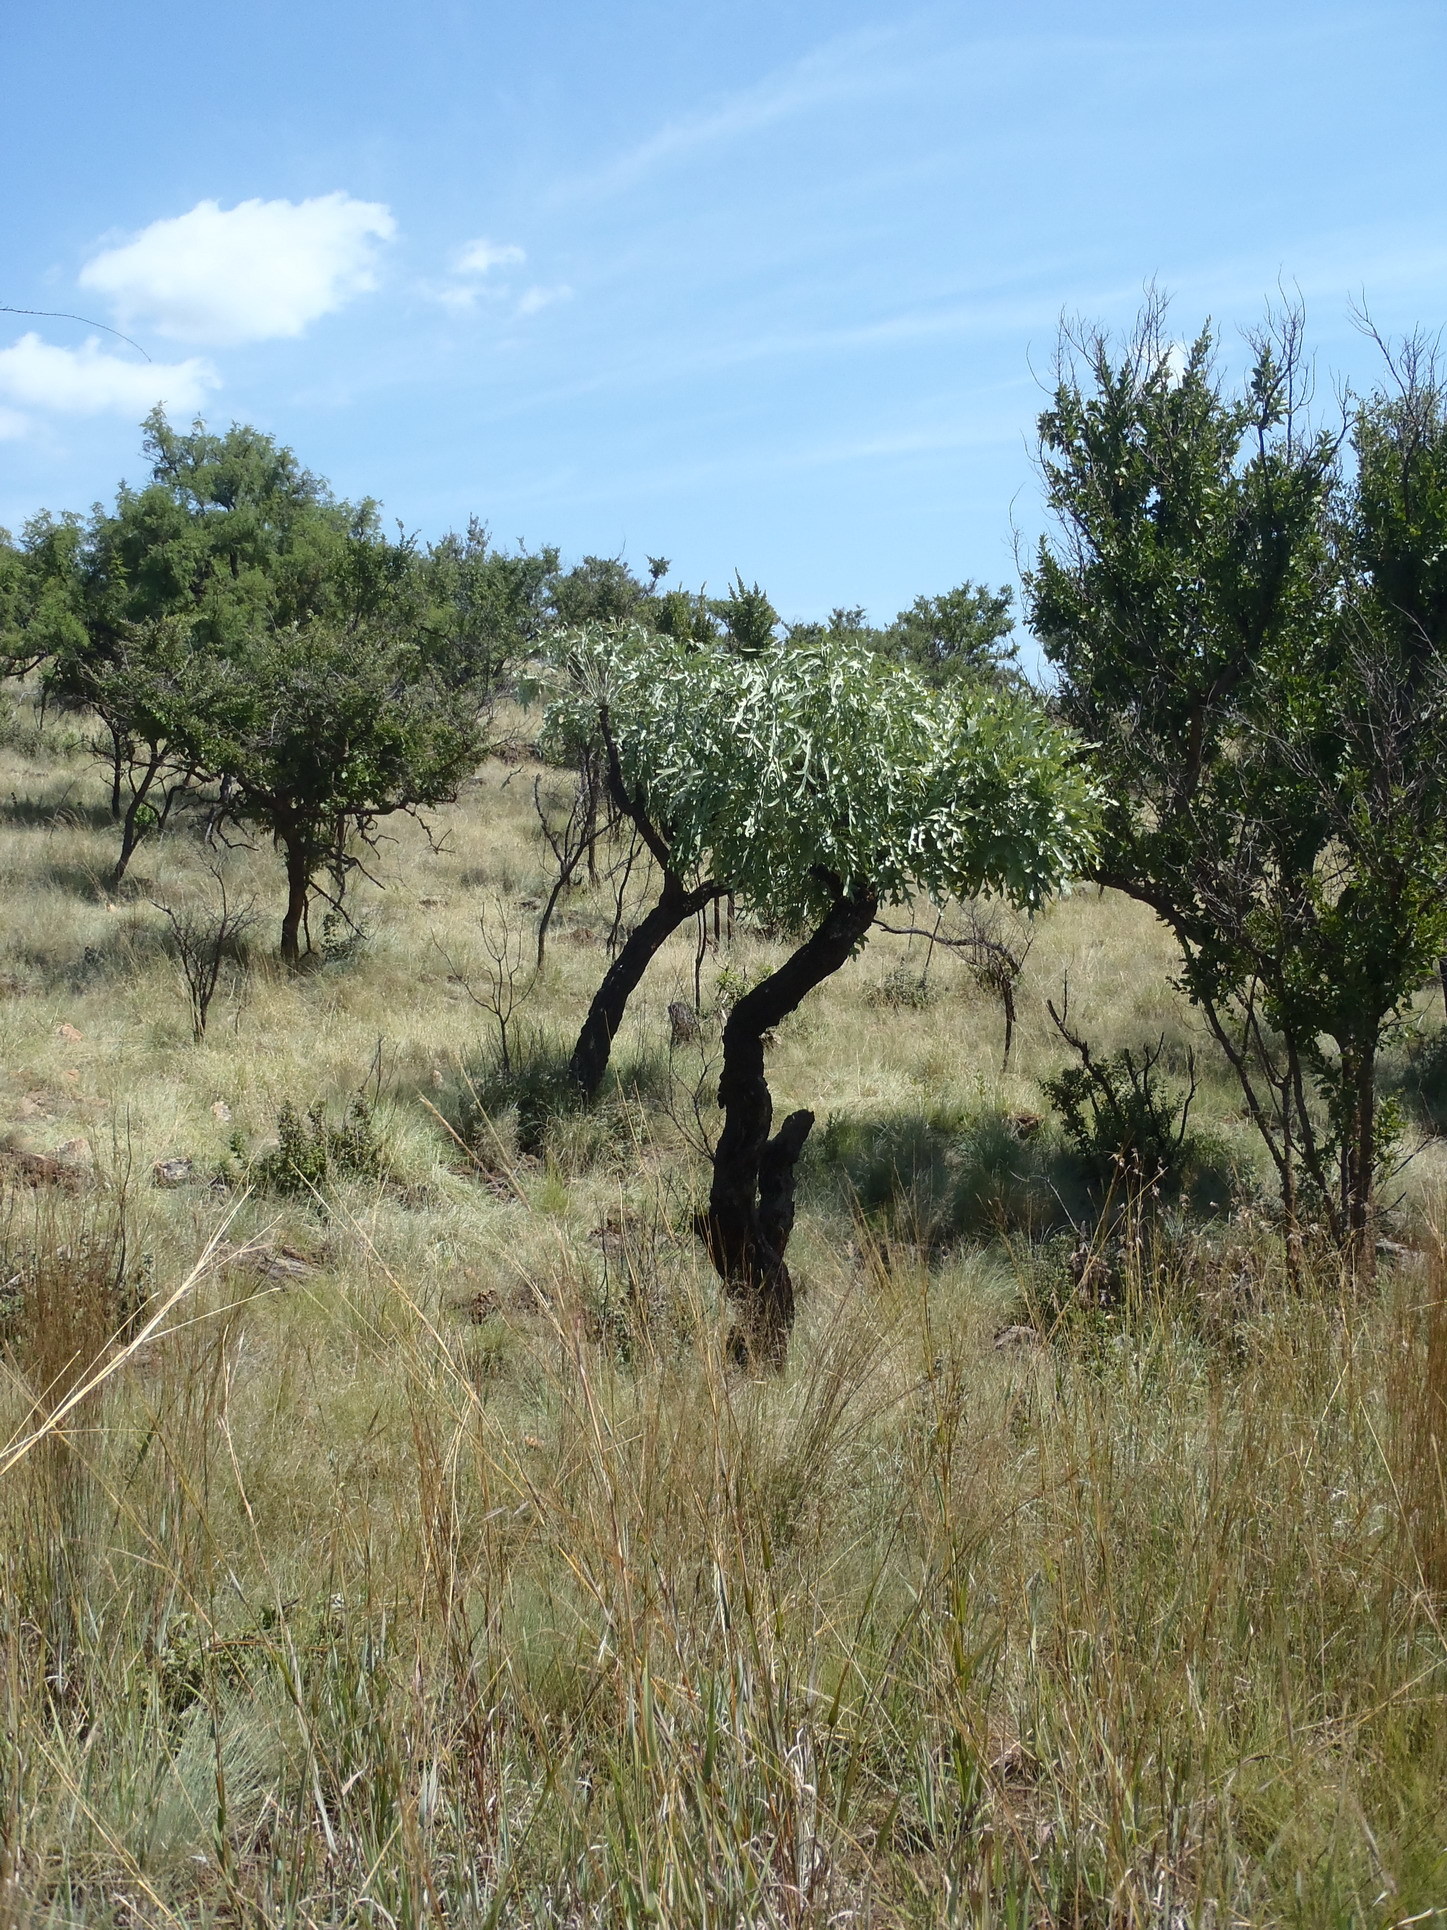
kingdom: Plantae
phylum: Tracheophyta
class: Magnoliopsida
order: Apiales
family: Araliaceae
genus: Cussonia
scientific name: Cussonia paniculata
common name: Cabbagetree
